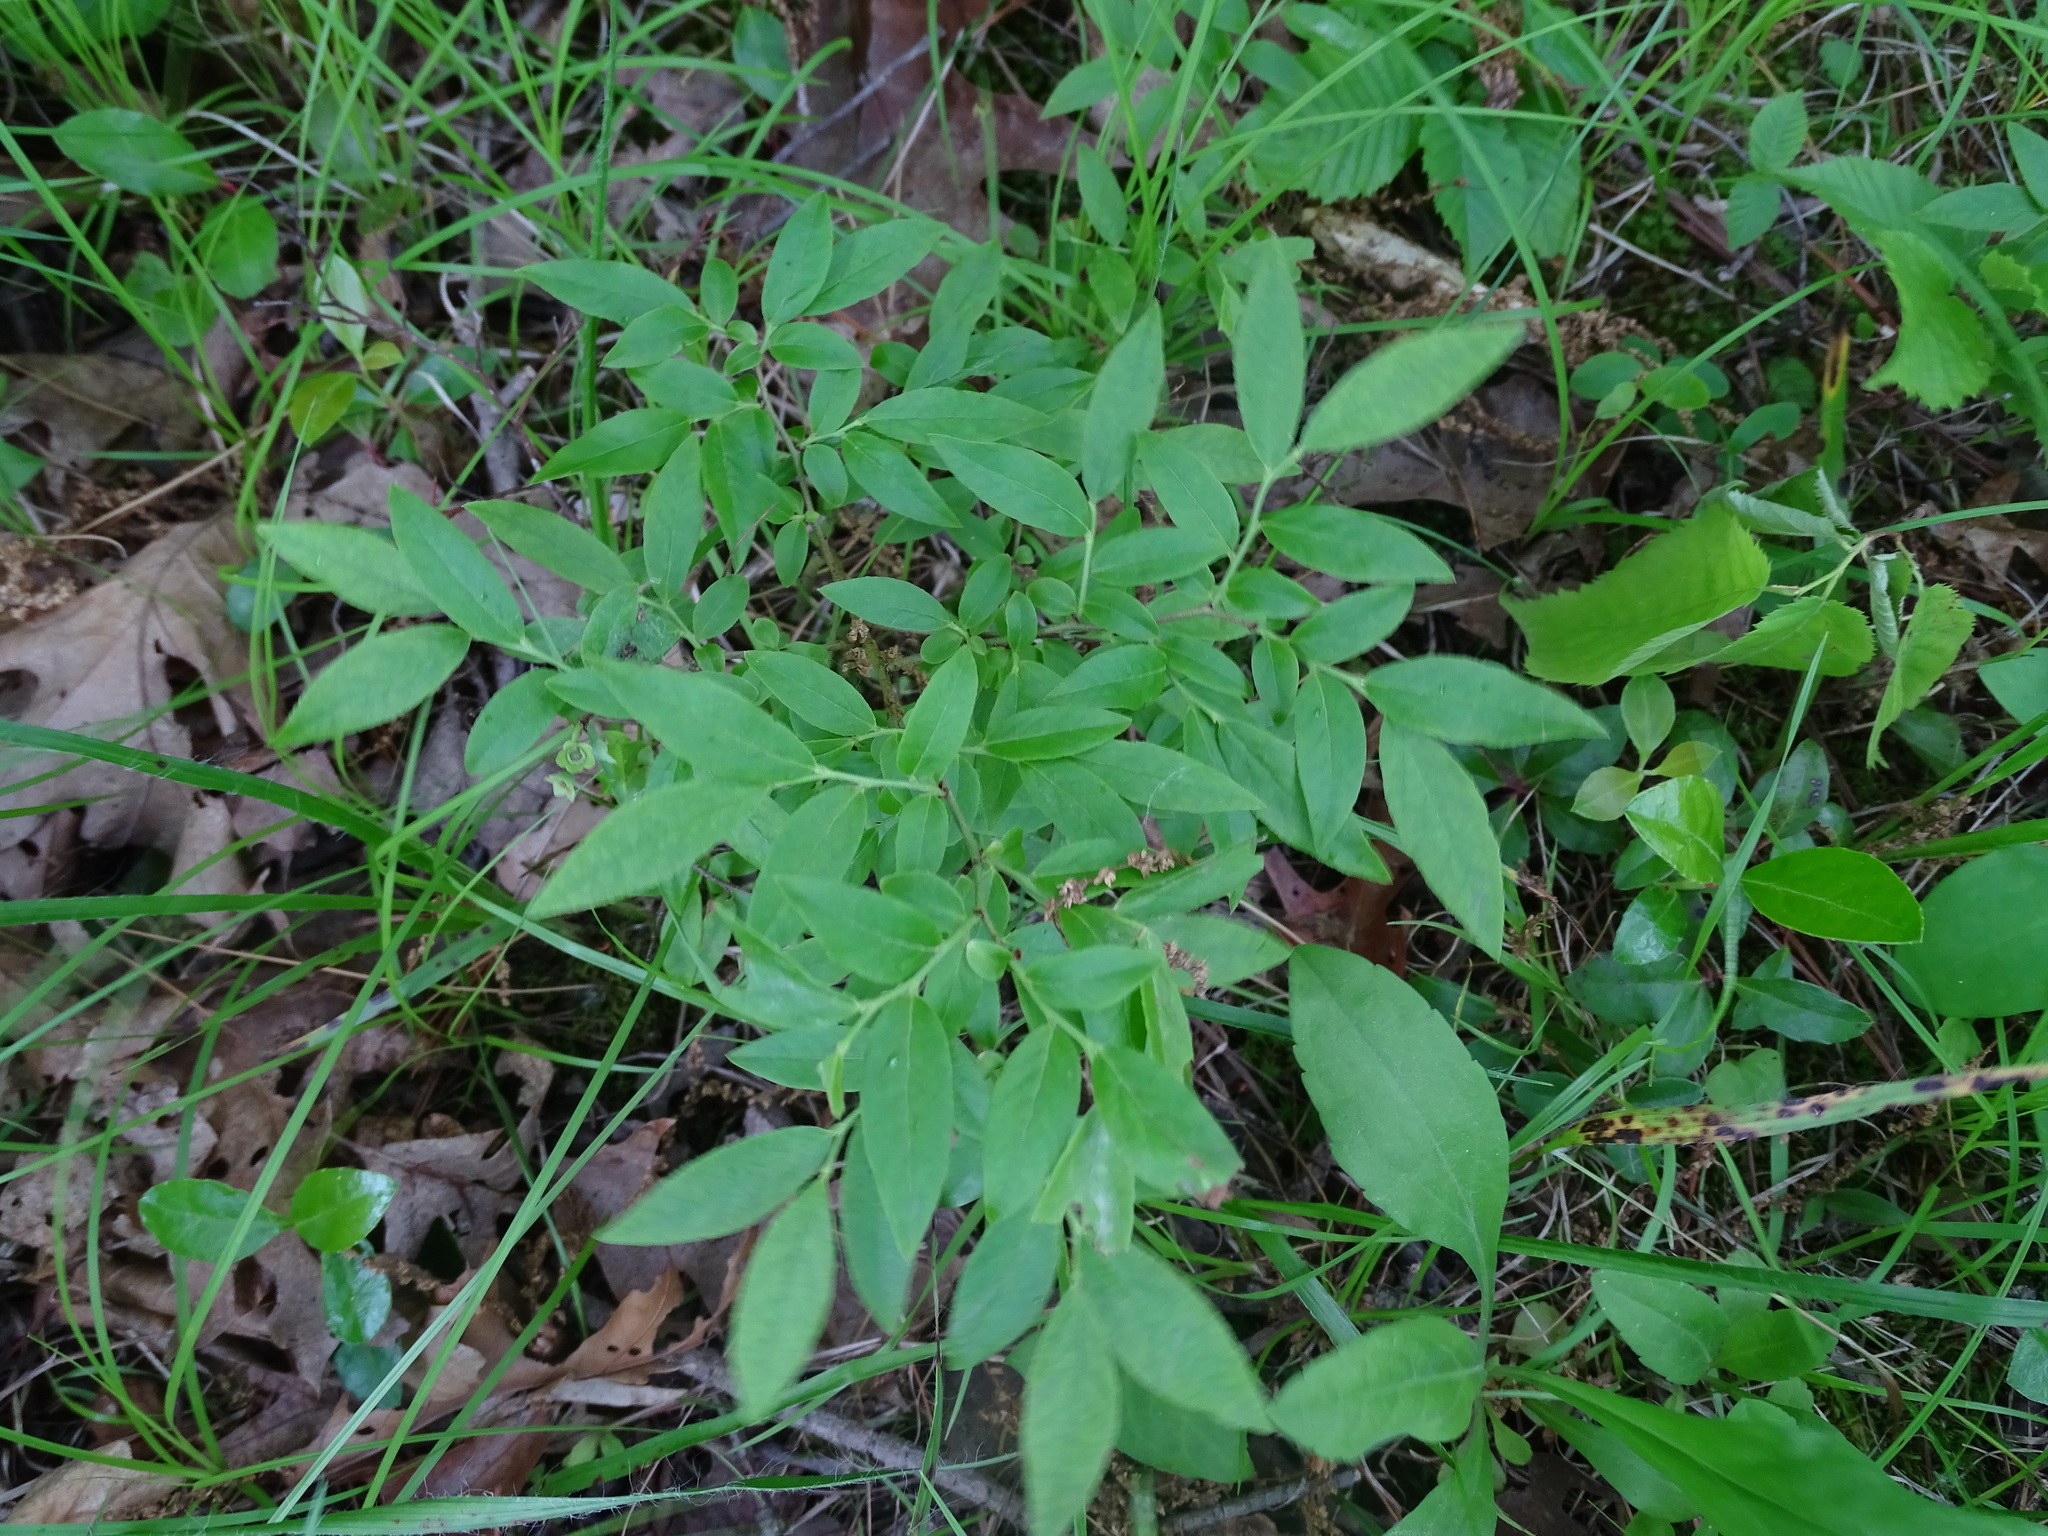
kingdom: Plantae
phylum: Tracheophyta
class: Magnoliopsida
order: Ericales
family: Ericaceae
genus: Vaccinium
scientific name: Vaccinium angustifolium
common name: Early lowbush blueberry
